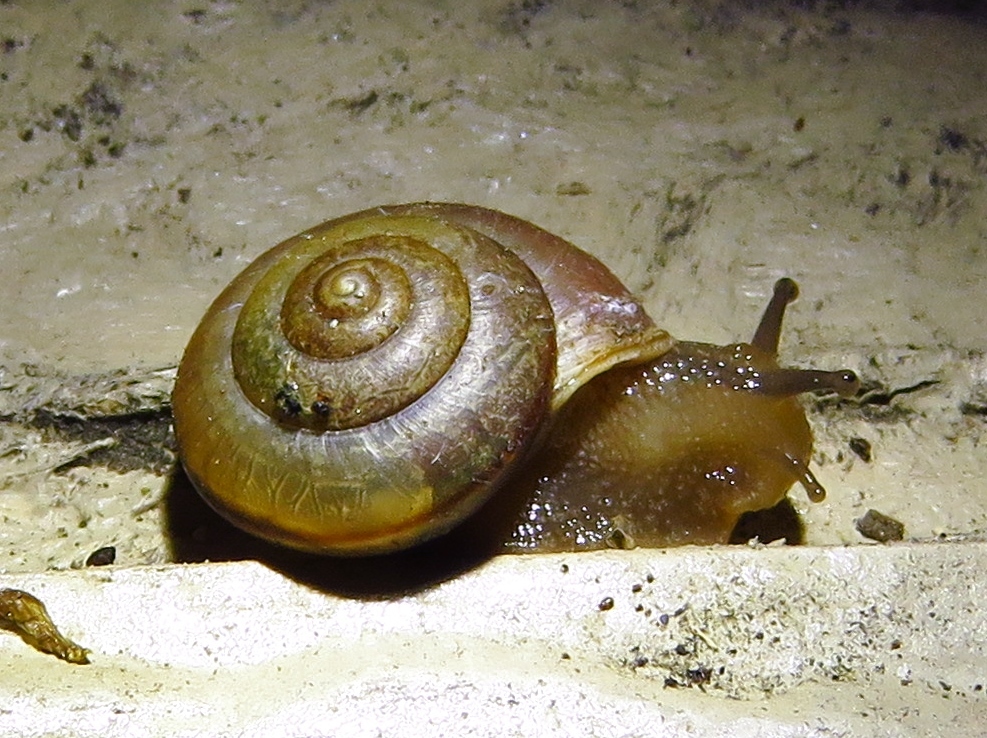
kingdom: Animalia
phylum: Mollusca
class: Gastropoda
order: Stylommatophora
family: Camaenidae
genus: Bradybaena
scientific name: Bradybaena similaris
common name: Asian trampsnail
